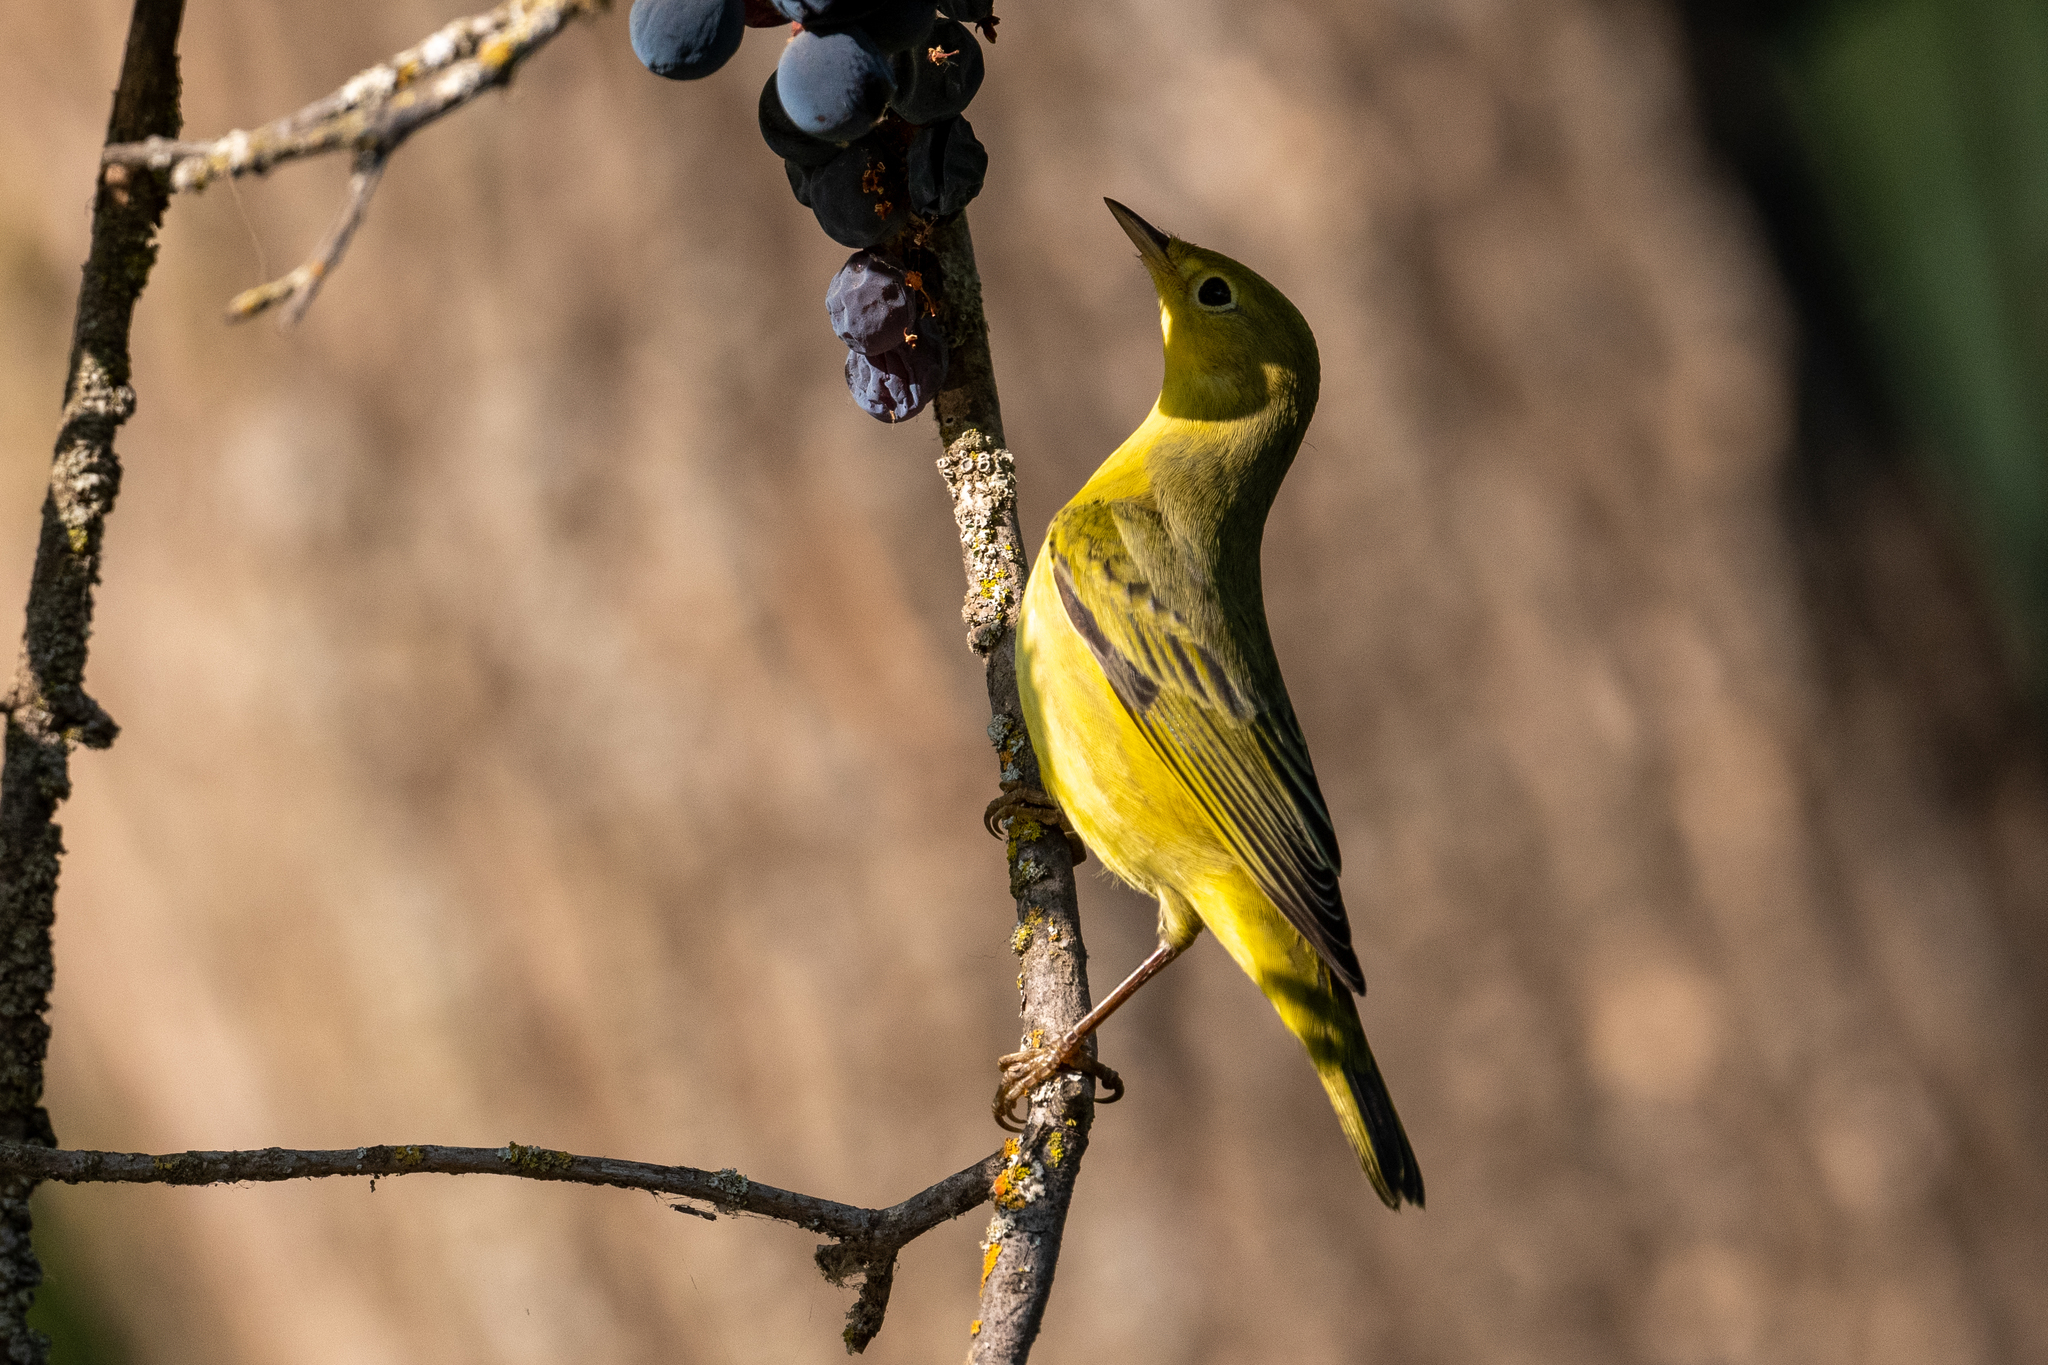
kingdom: Animalia
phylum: Chordata
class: Aves
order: Passeriformes
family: Parulidae
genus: Setophaga
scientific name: Setophaga petechia
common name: Yellow warbler
